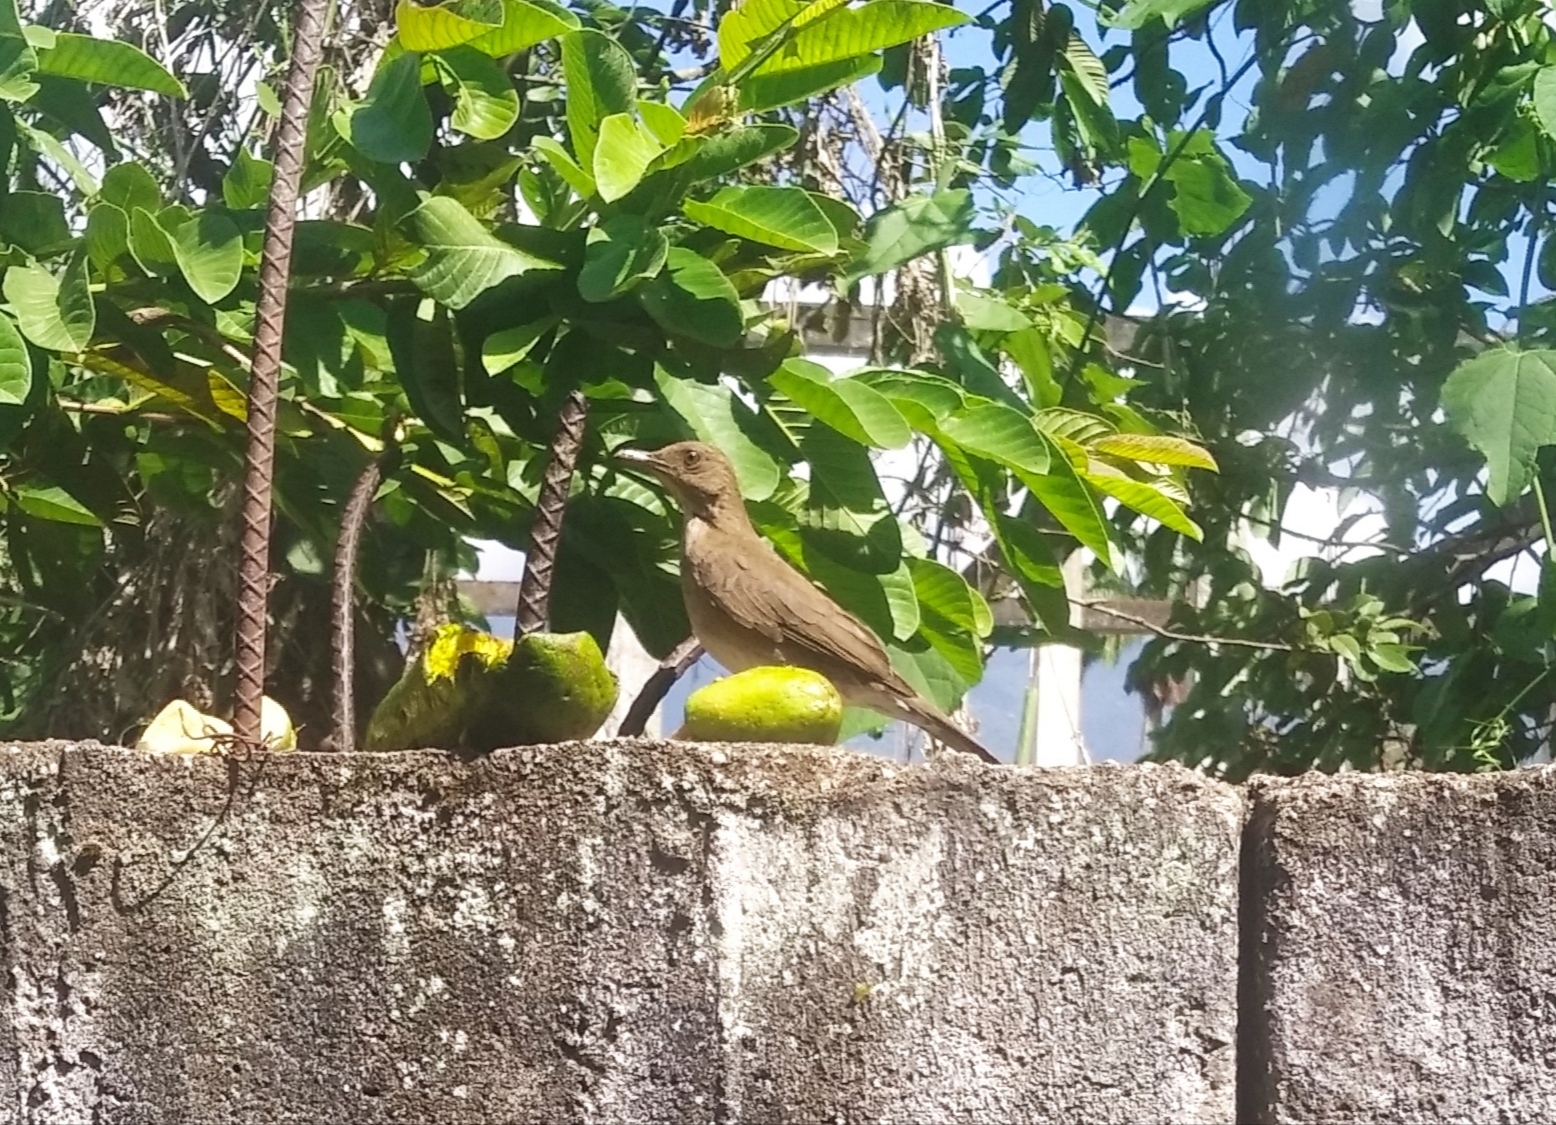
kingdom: Animalia
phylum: Chordata
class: Aves
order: Passeriformes
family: Turdidae
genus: Turdus
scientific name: Turdus ignobilis
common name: Black-billed thrush
